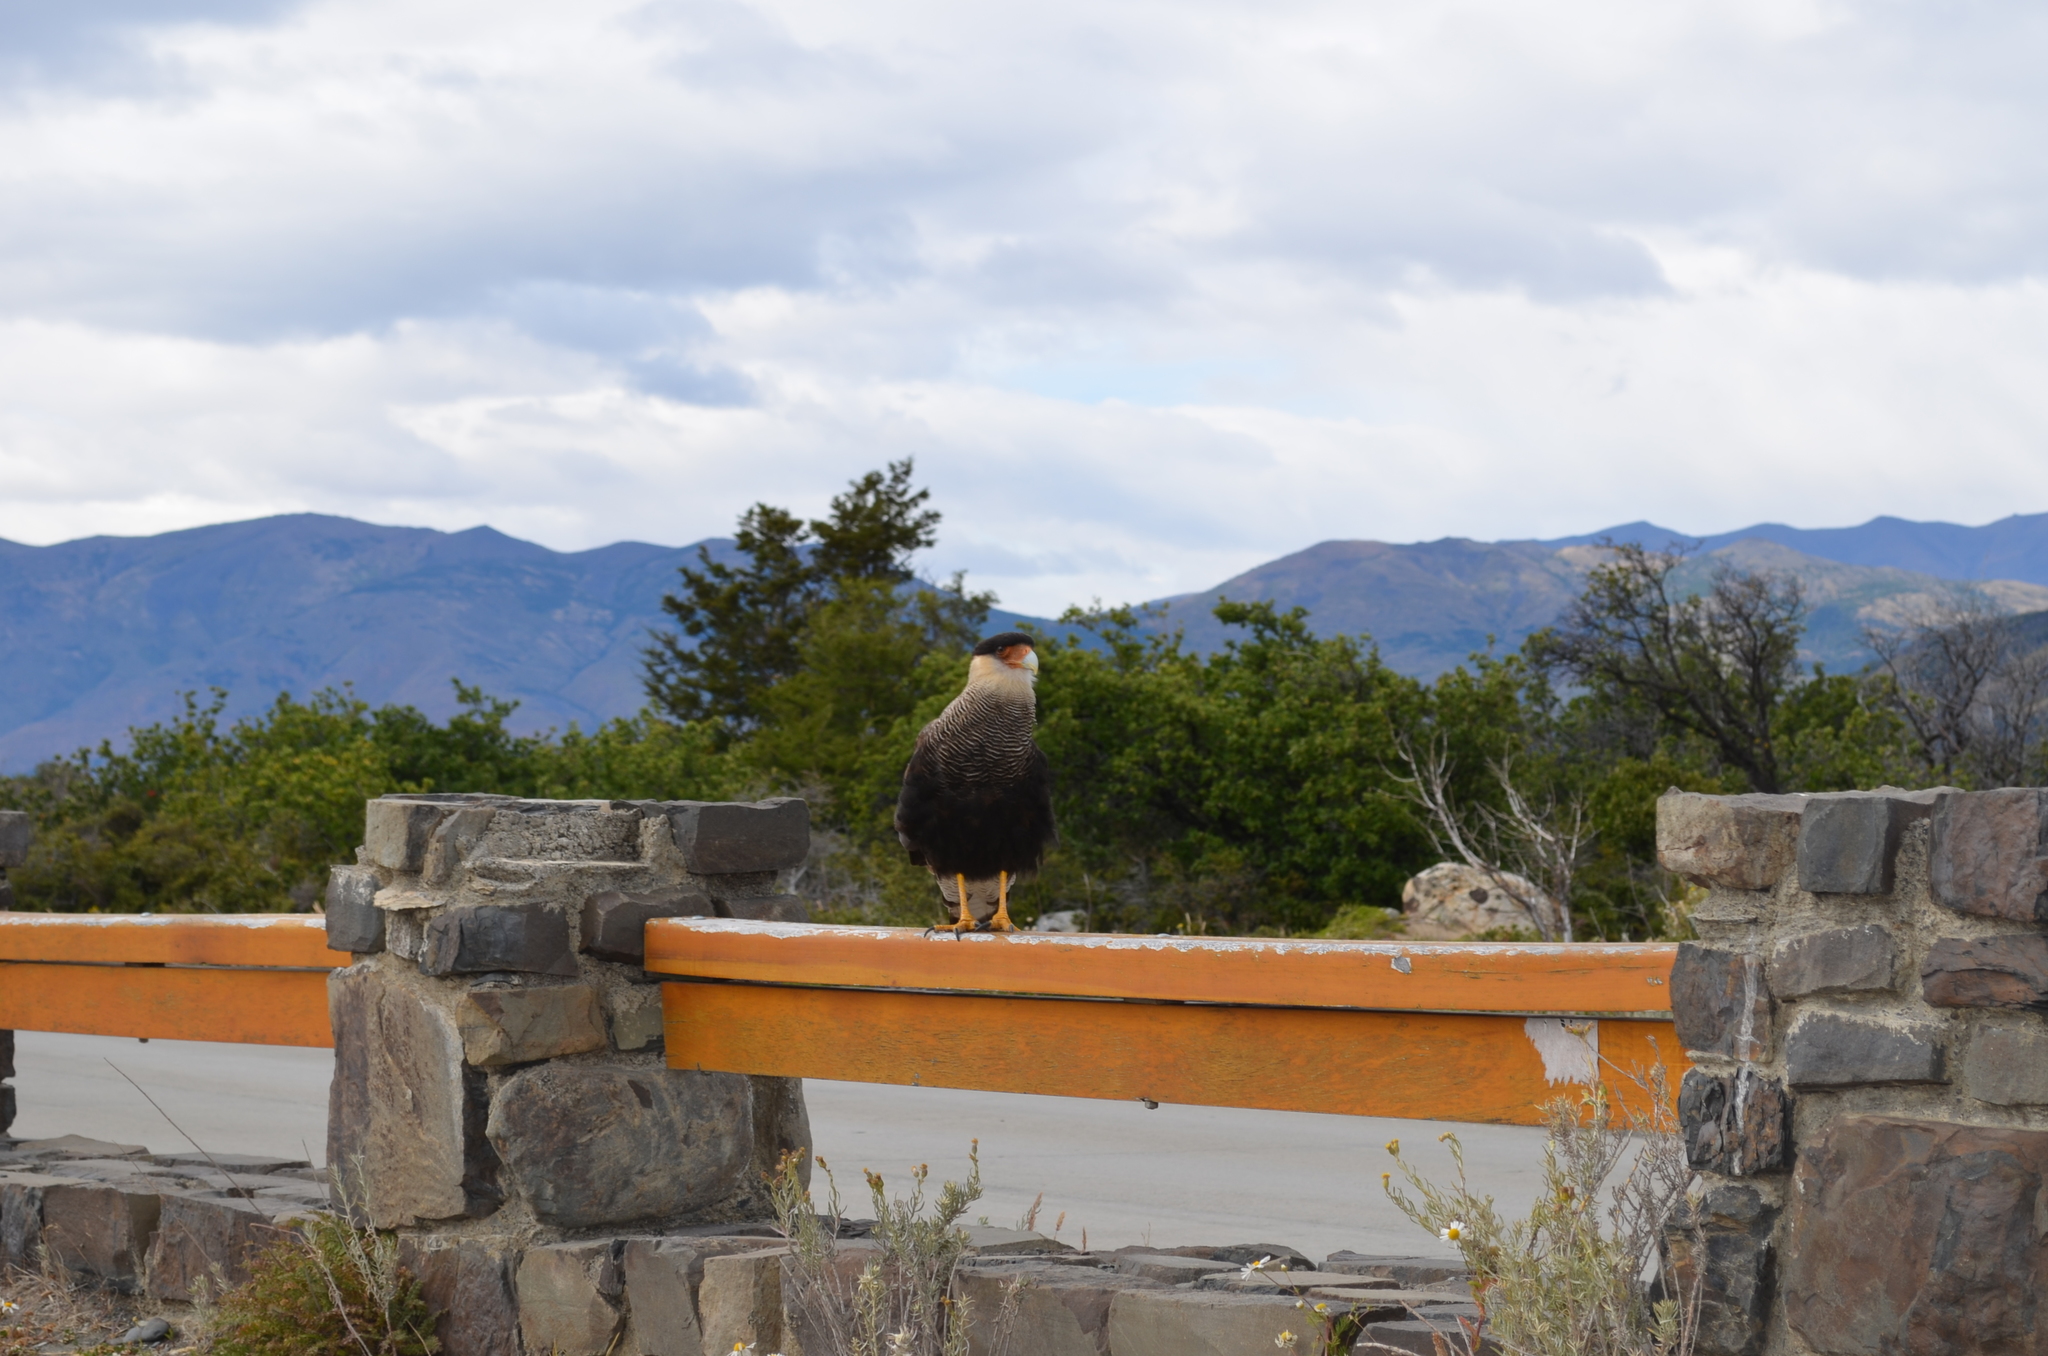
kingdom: Animalia
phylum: Chordata
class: Aves
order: Falconiformes
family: Falconidae
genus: Caracara
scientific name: Caracara plancus
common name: Southern caracara
